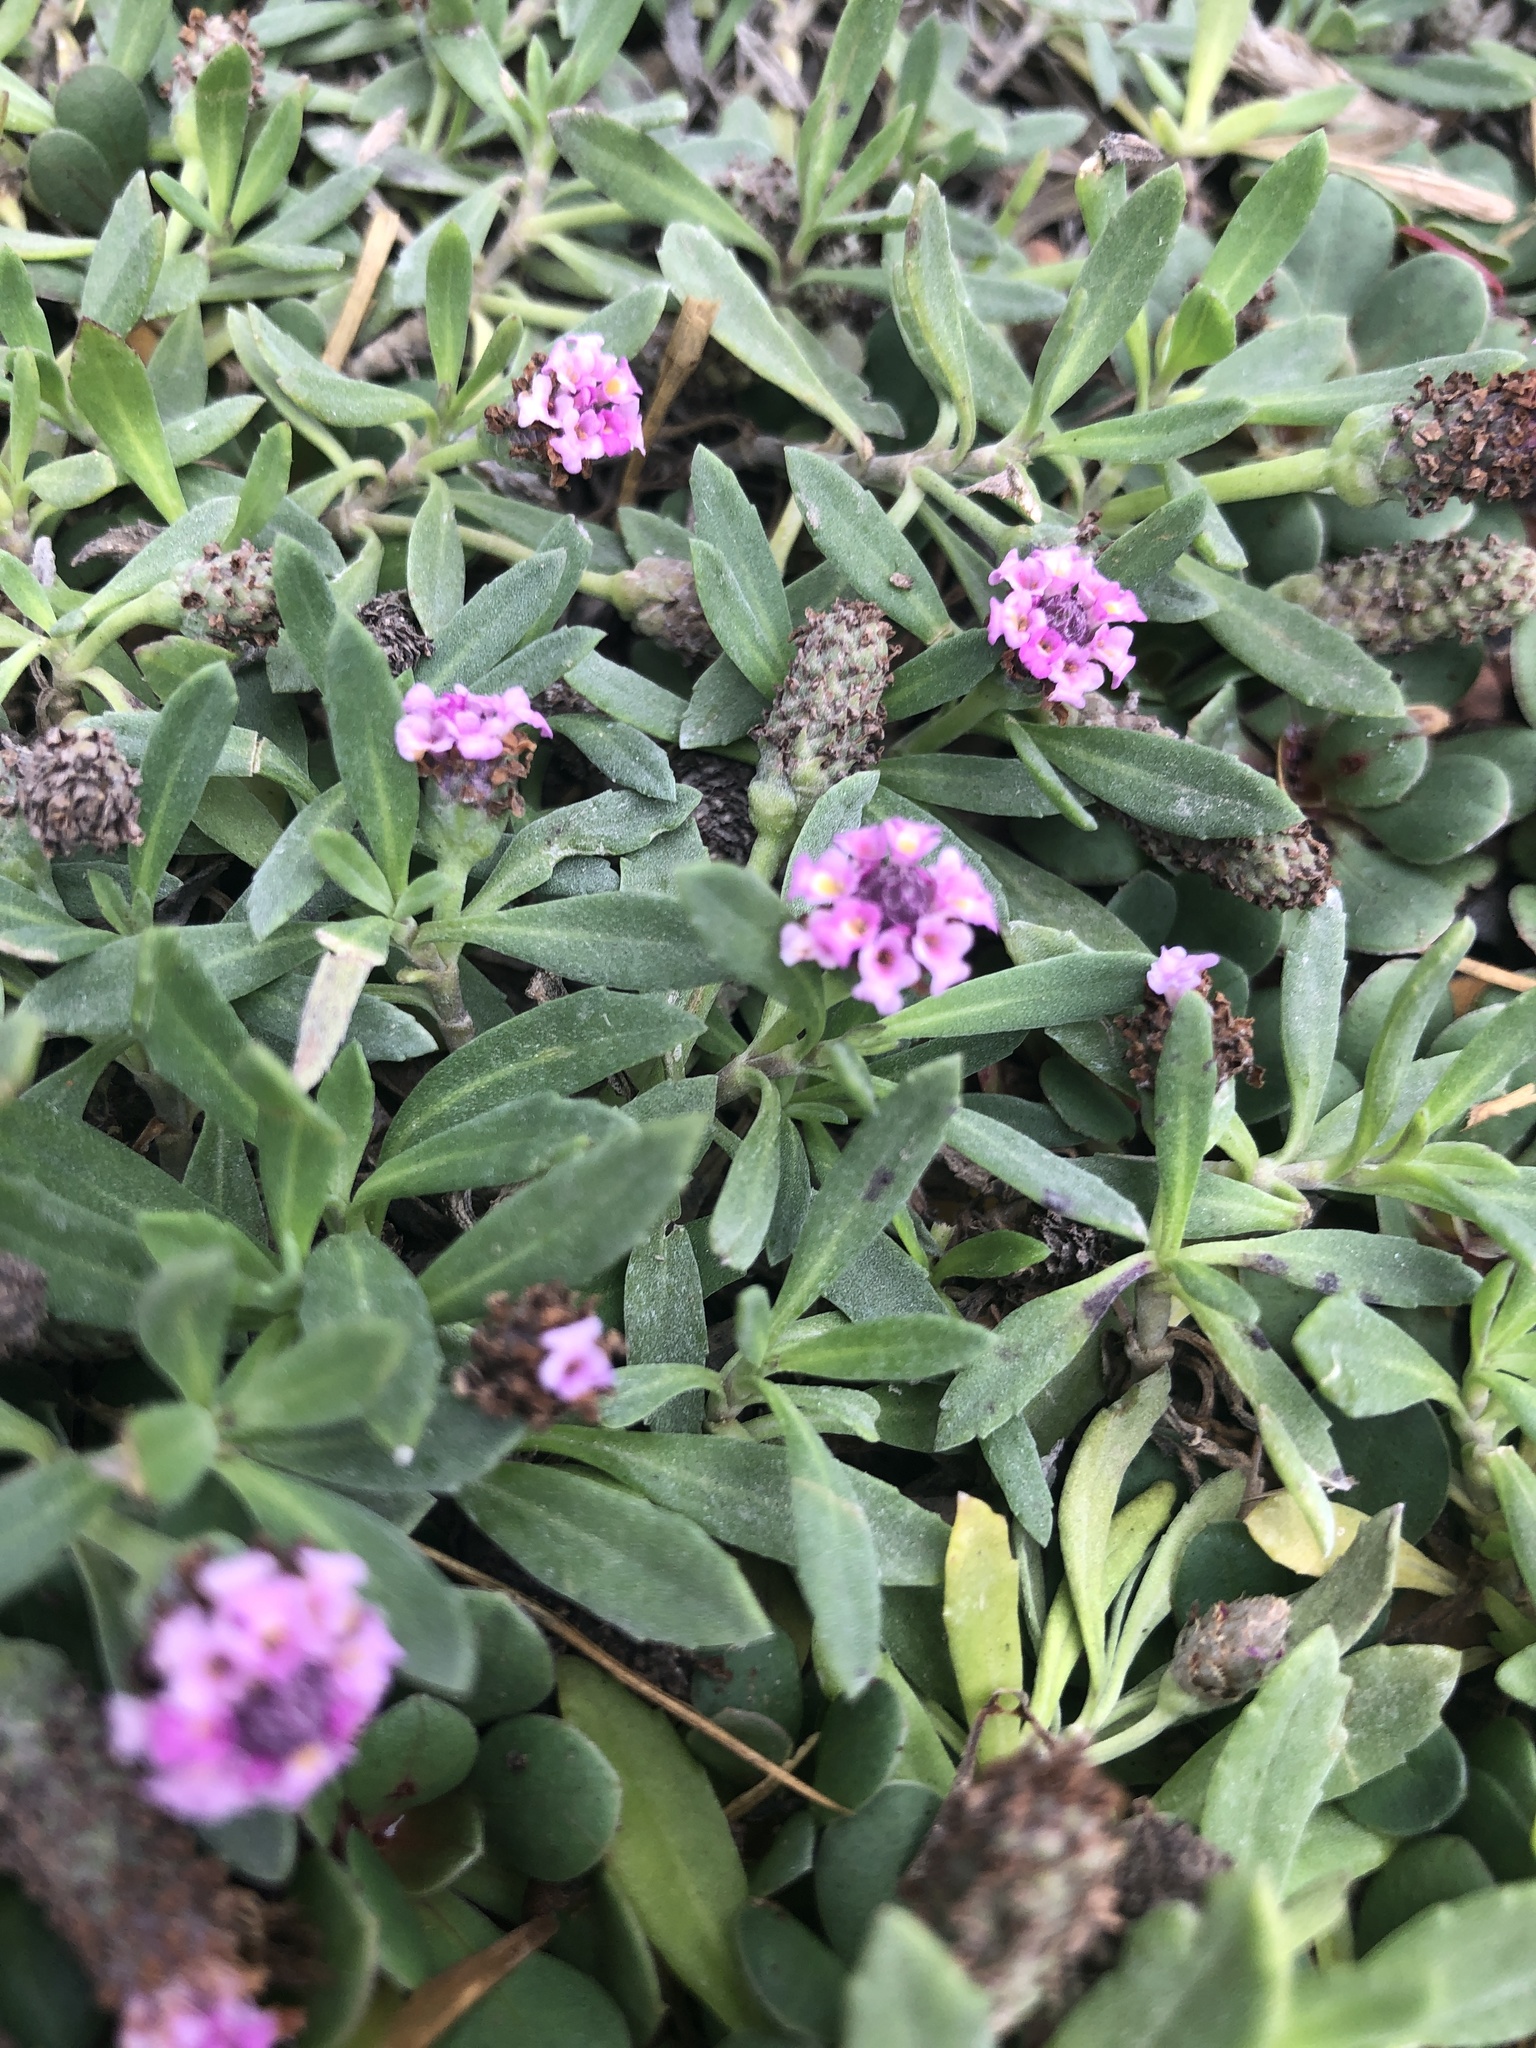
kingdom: Plantae
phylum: Tracheophyta
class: Magnoliopsida
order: Lamiales
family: Verbenaceae
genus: Phyla
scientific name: Phyla nodiflora
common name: Frogfruit
